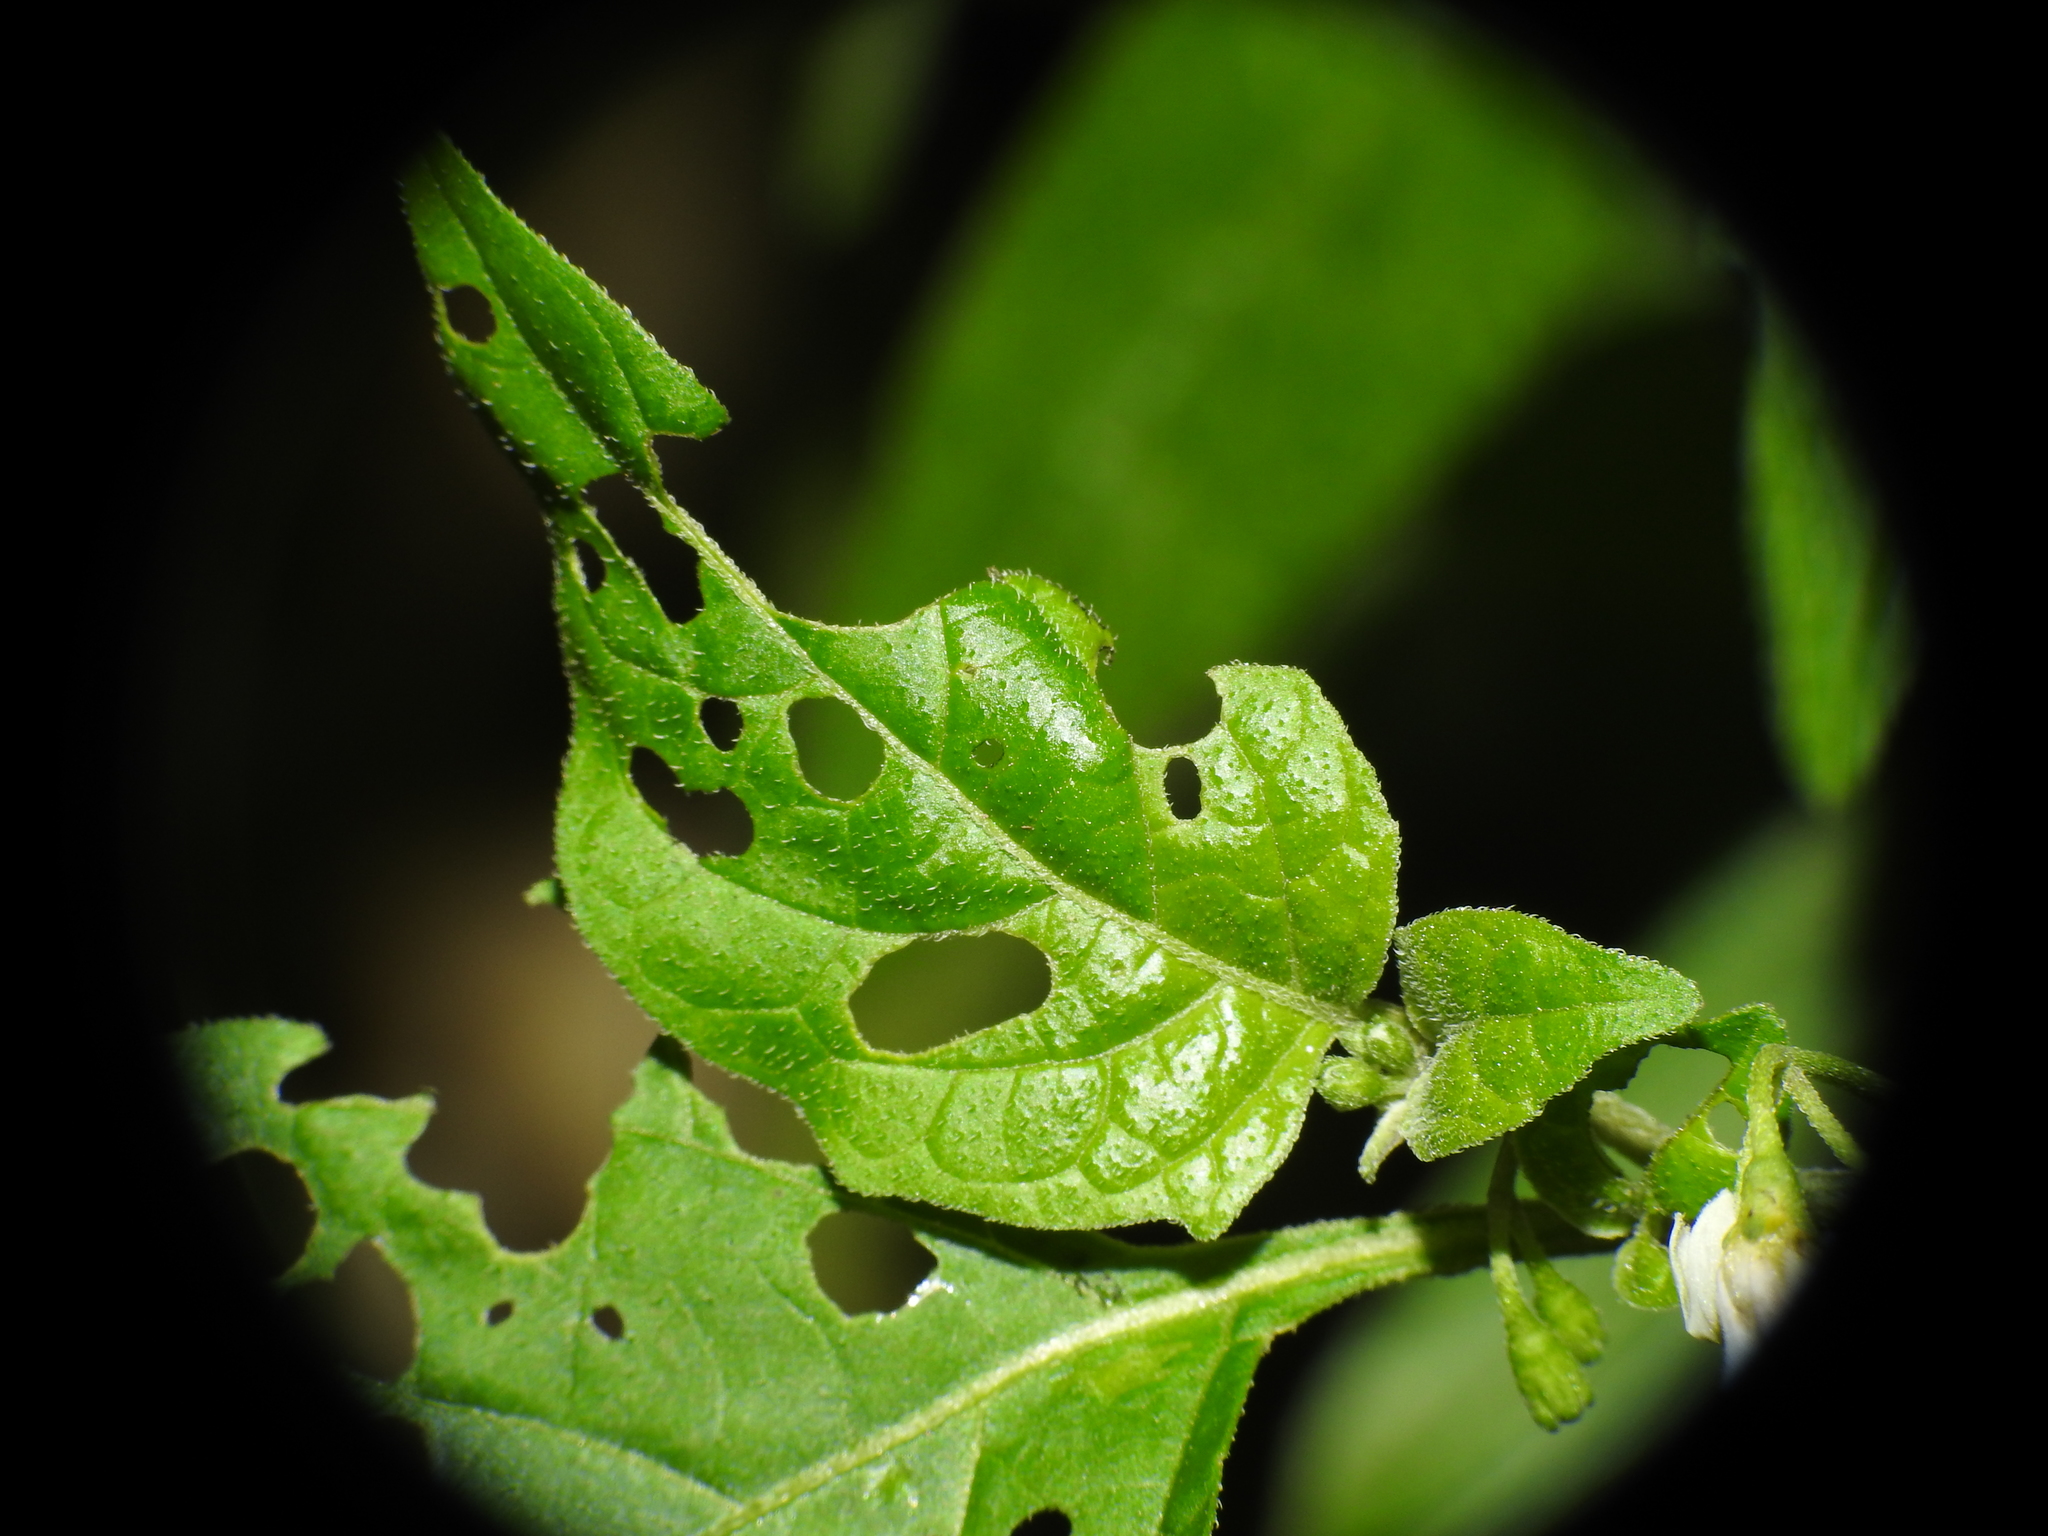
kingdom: Plantae
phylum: Tracheophyta
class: Magnoliopsida
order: Solanales
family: Solanaceae
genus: Solanum
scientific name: Solanum emulans
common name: Eastern black nightshade
